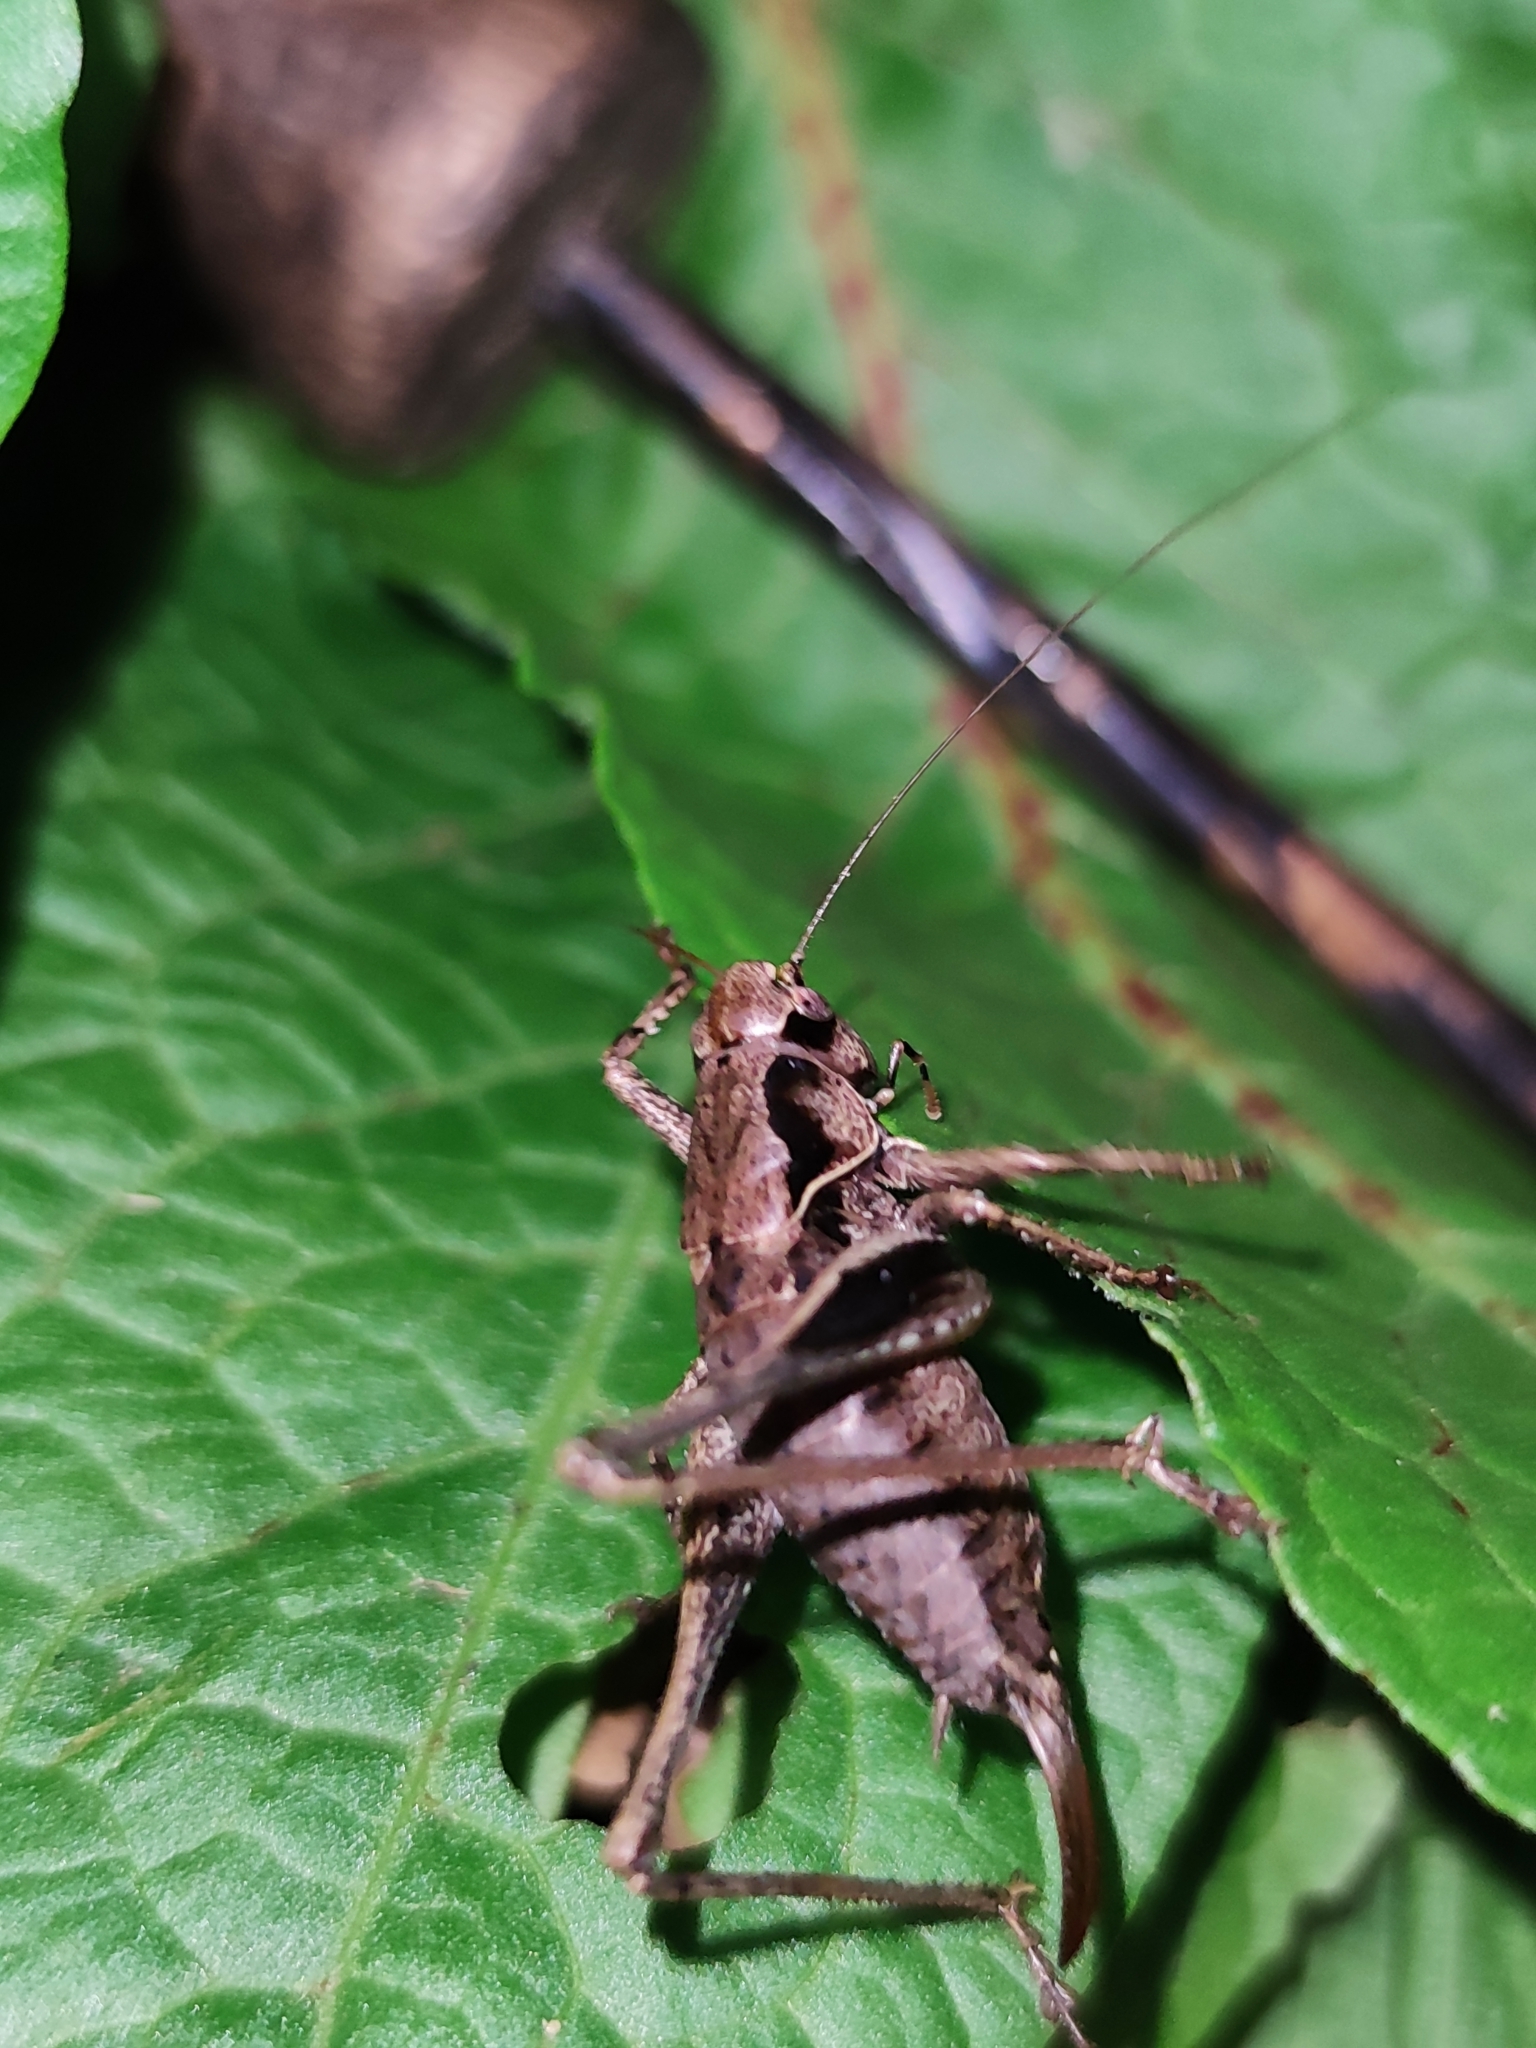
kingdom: Animalia
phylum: Arthropoda
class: Insecta
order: Orthoptera
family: Tettigoniidae
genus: Pholidoptera
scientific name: Pholidoptera griseoaptera
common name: Dark bush-cricket
